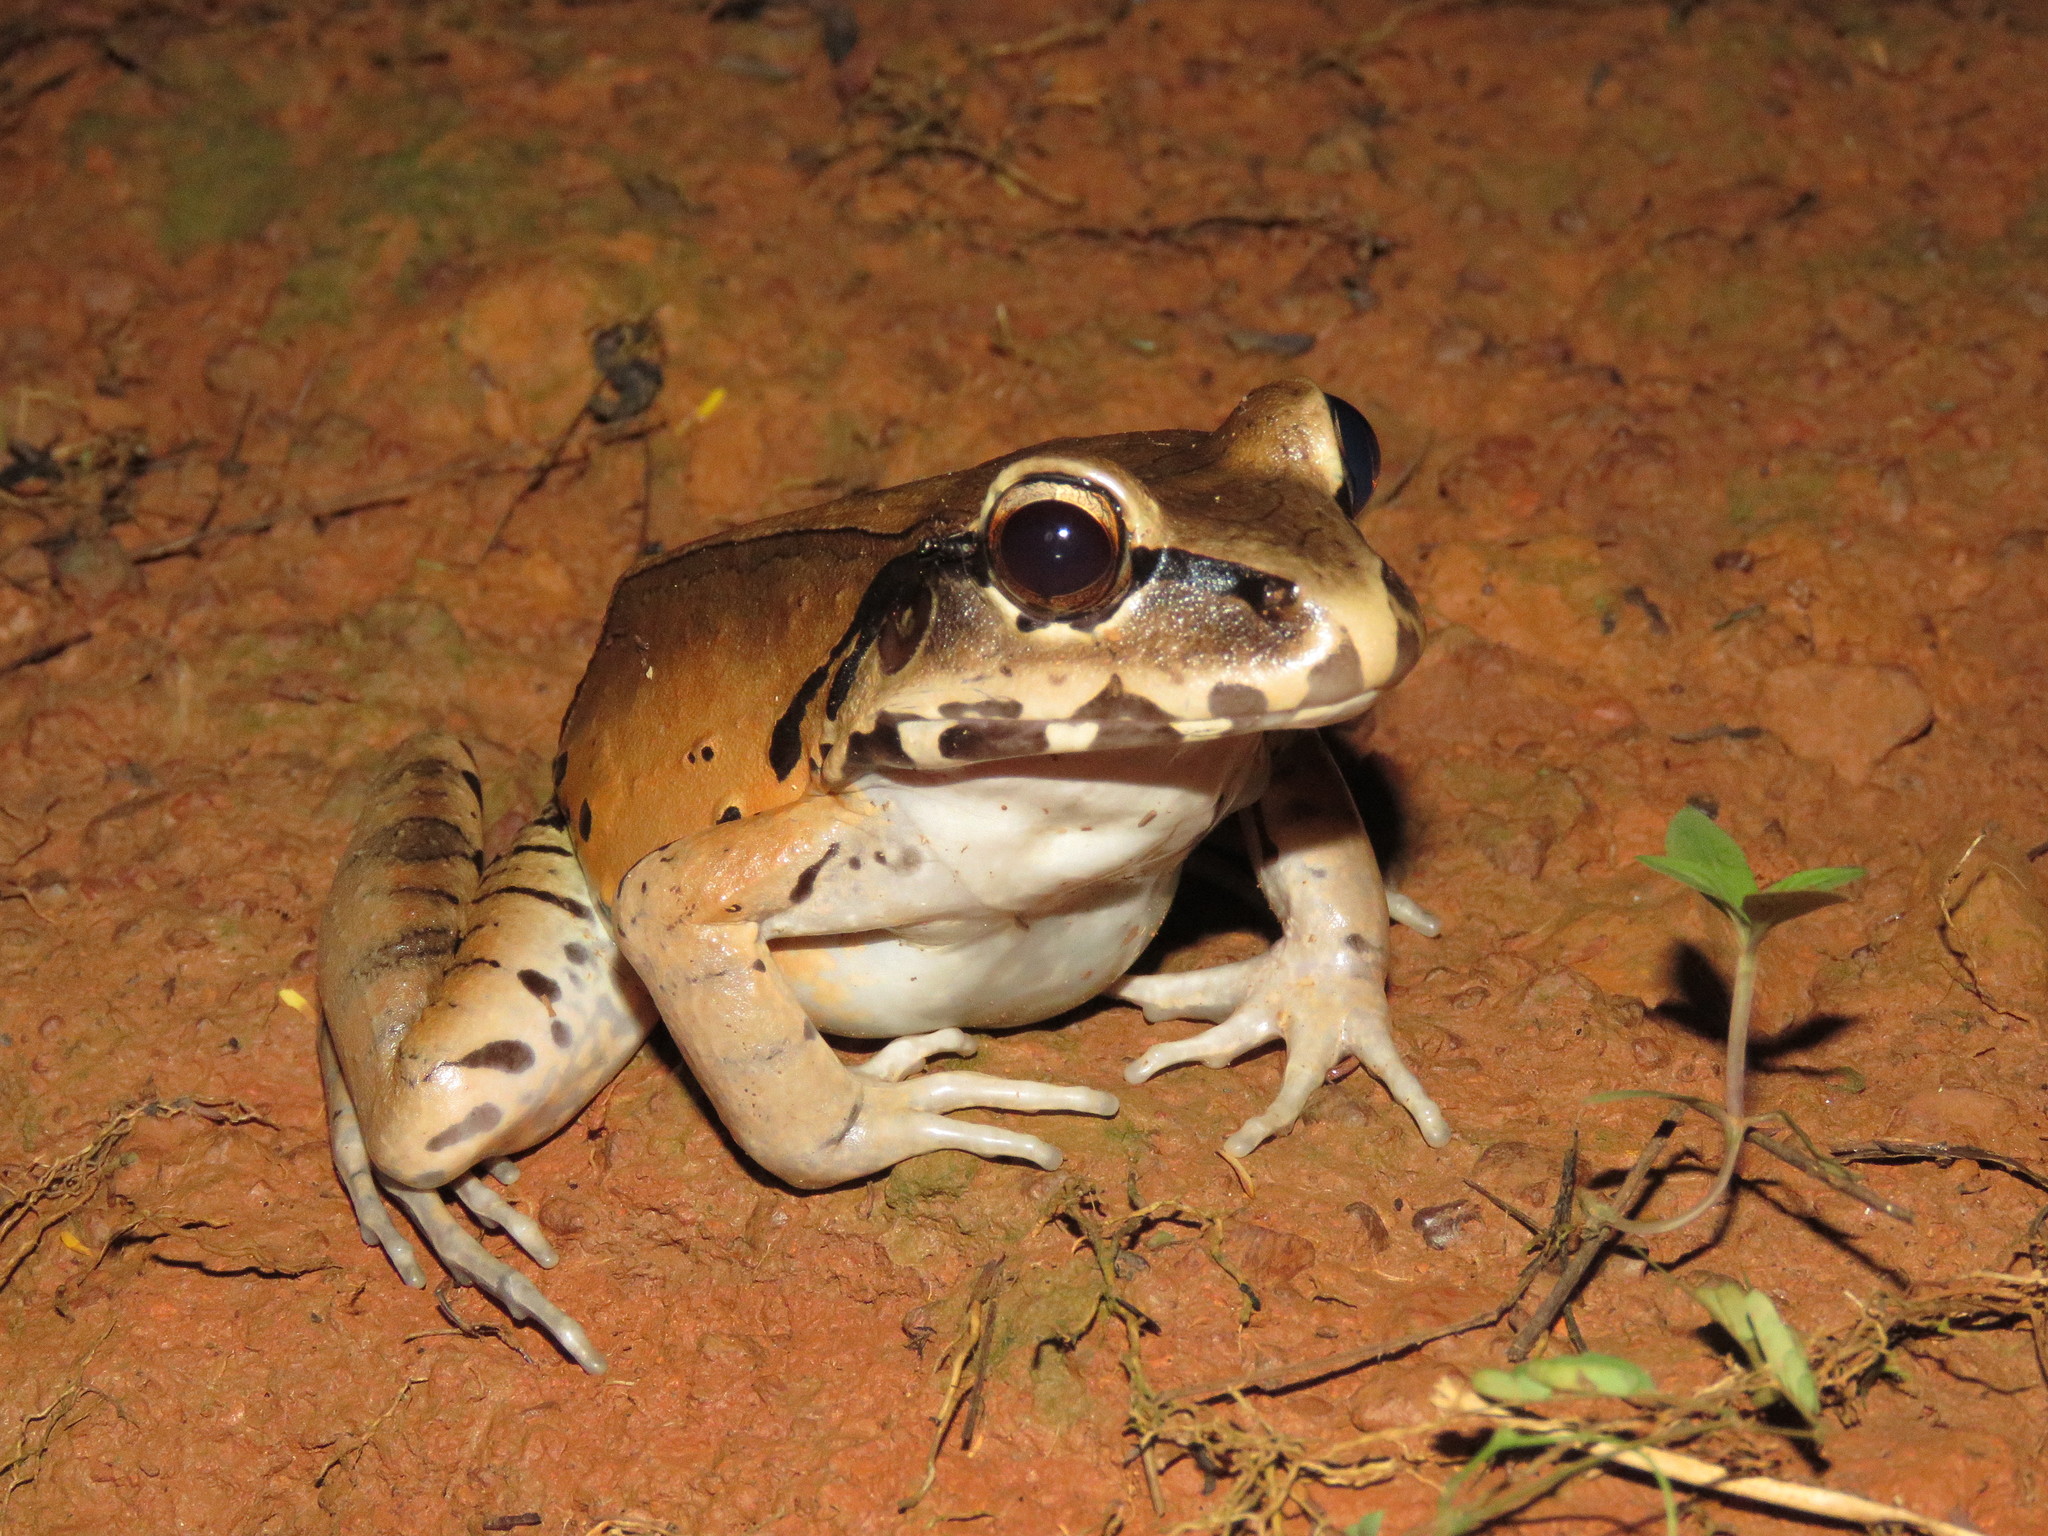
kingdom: Animalia
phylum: Chordata
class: Amphibia
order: Anura
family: Leptodactylidae
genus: Leptodactylus
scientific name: Leptodactylus pentadactylus
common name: Smoky jungle frog
